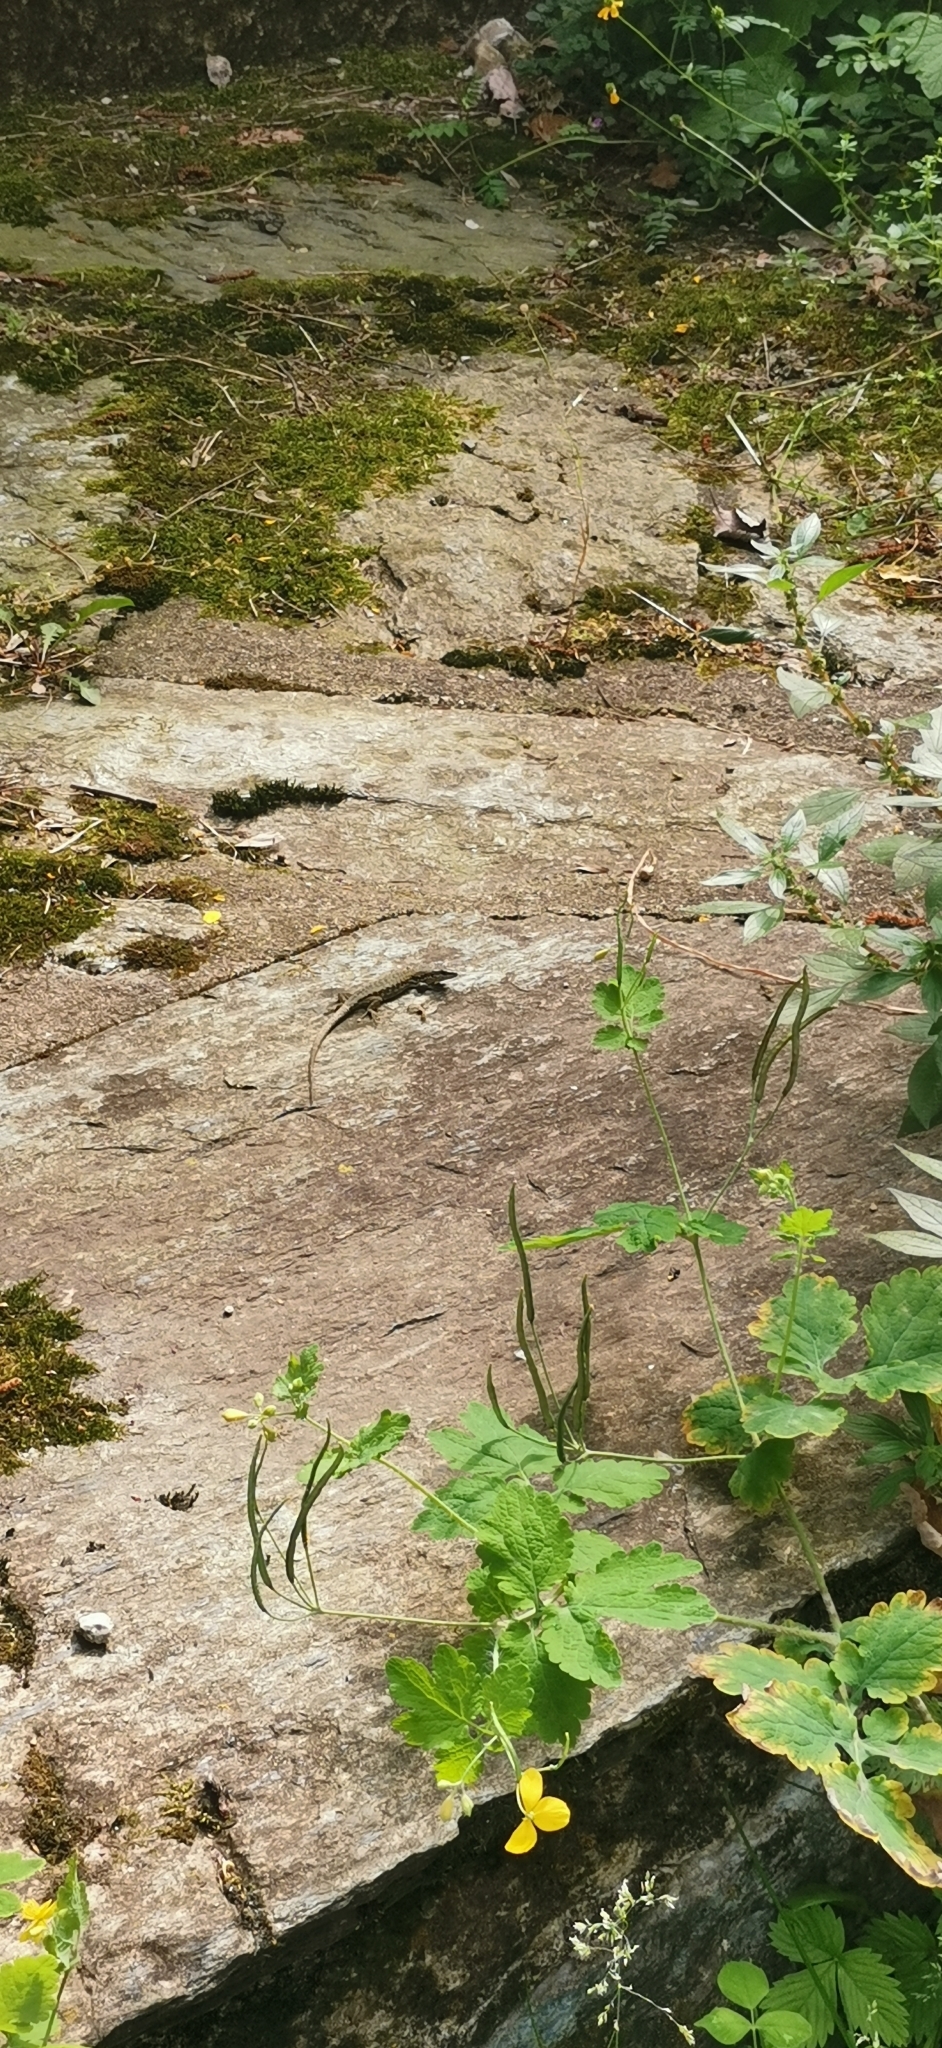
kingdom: Animalia
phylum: Chordata
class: Squamata
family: Lacertidae
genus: Podarcis
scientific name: Podarcis muralis
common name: Common wall lizard
